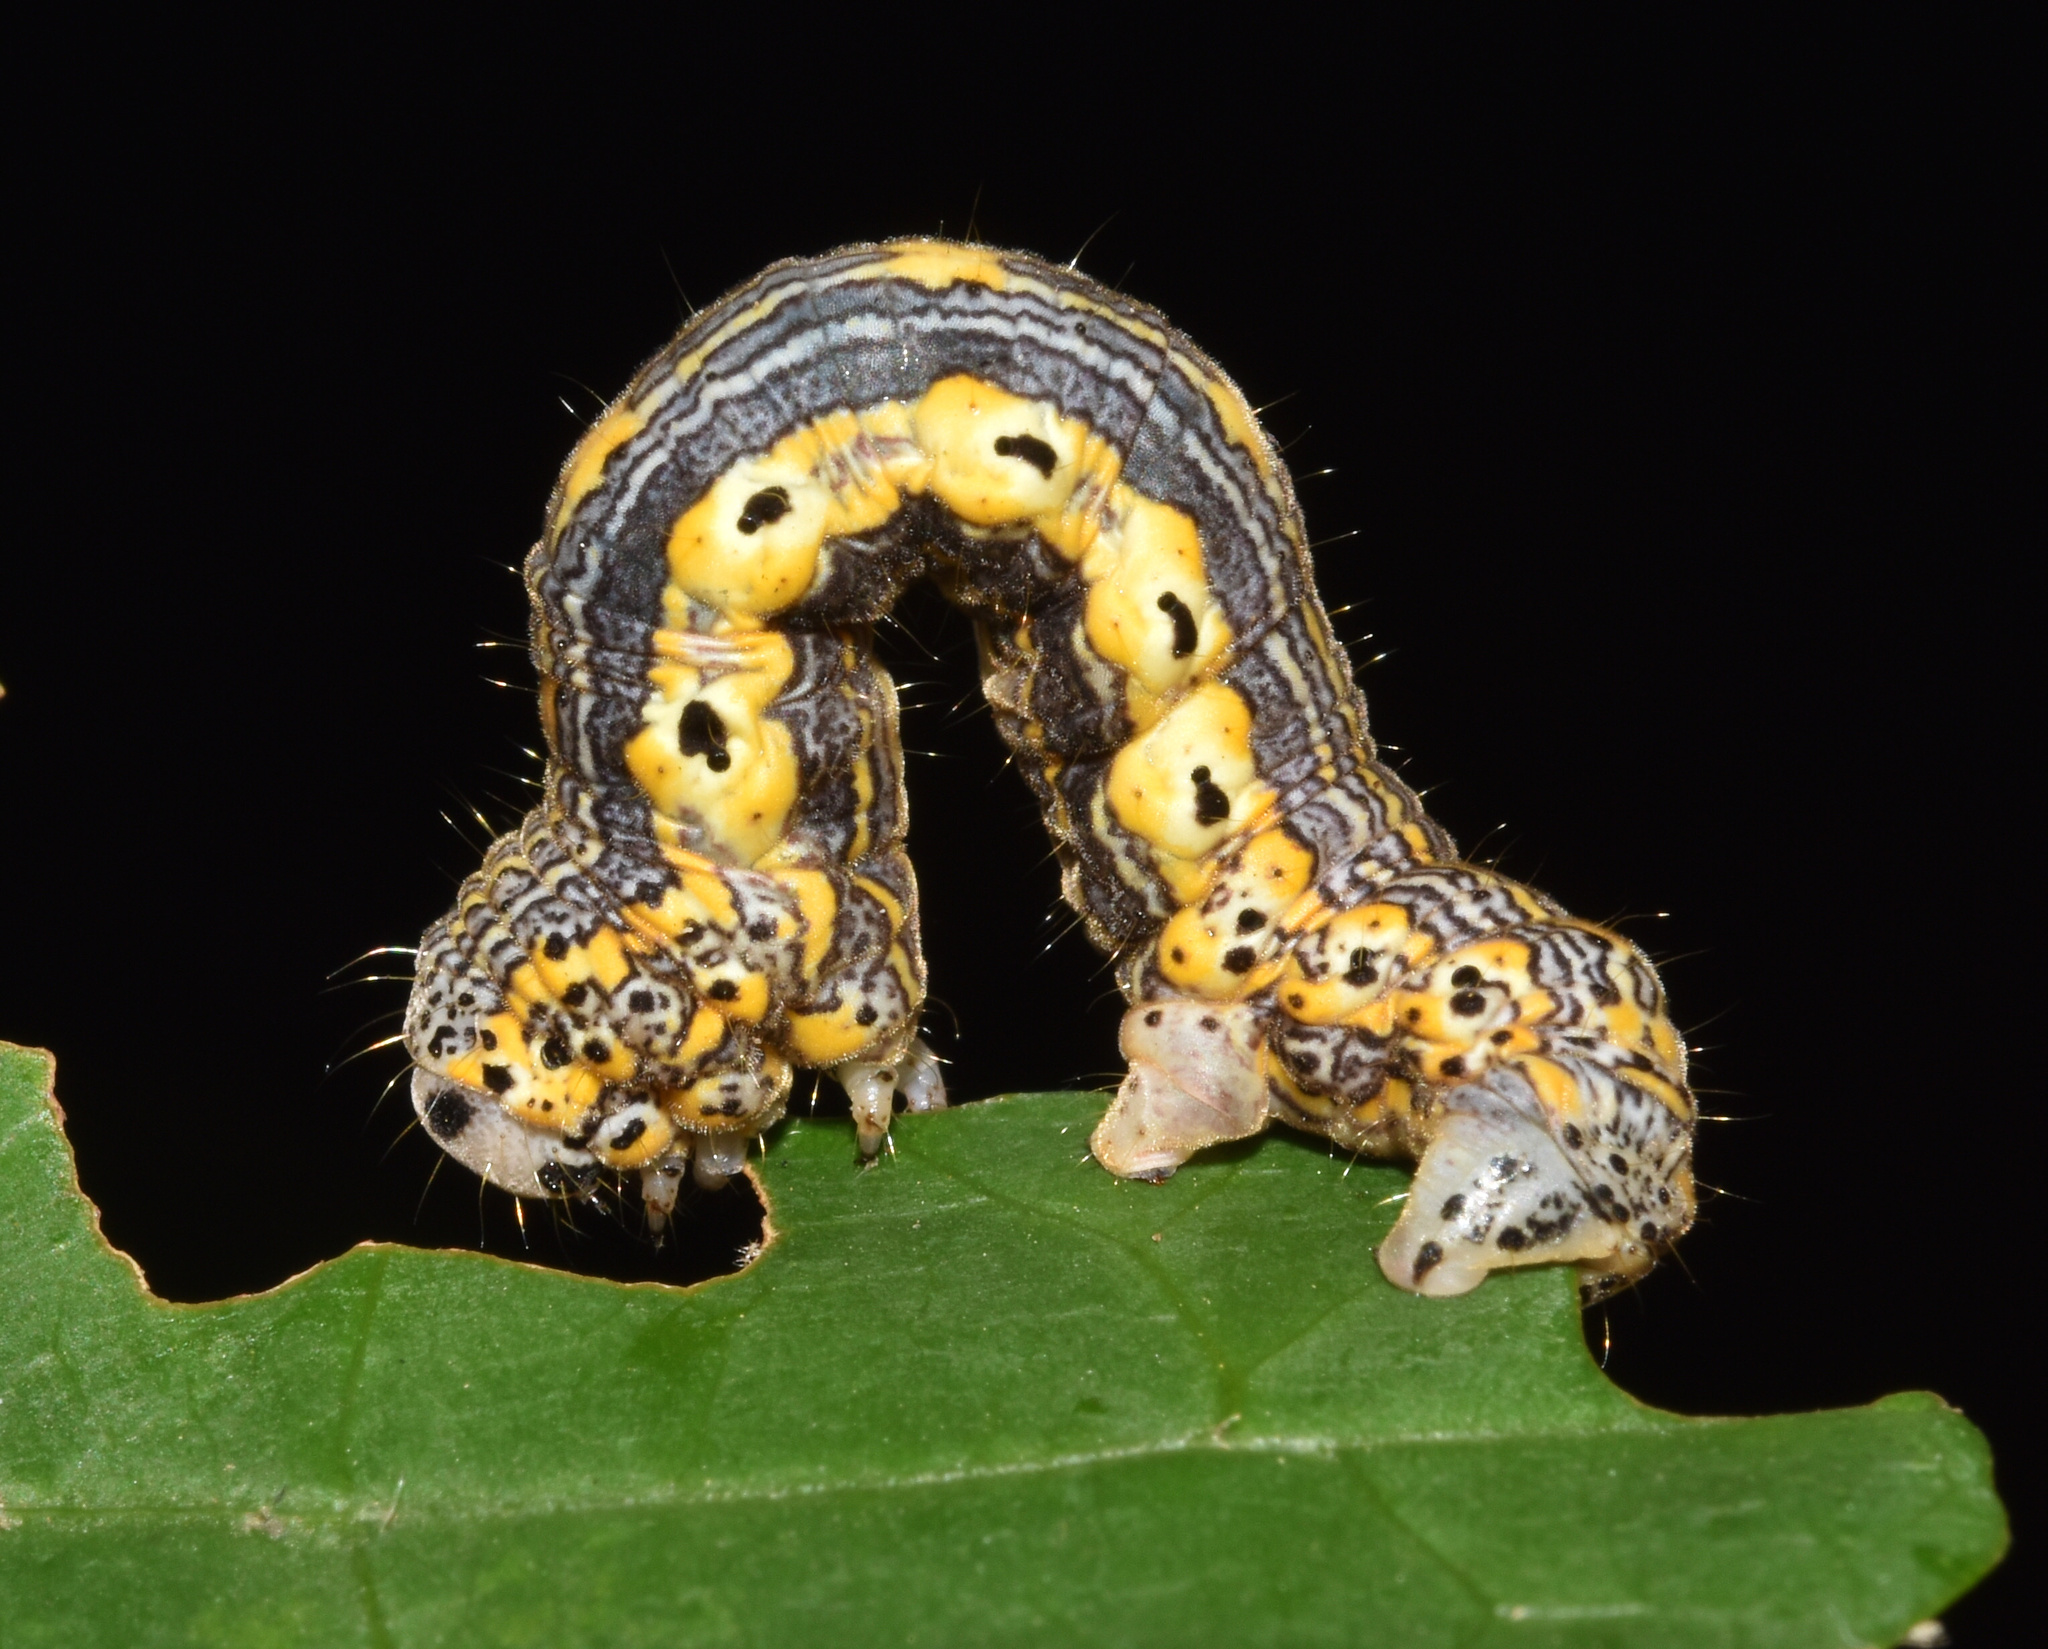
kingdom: Animalia
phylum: Arthropoda
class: Insecta
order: Lepidoptera
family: Geometridae
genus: Hypochrosis
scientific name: Hypochrosis meridionalis
